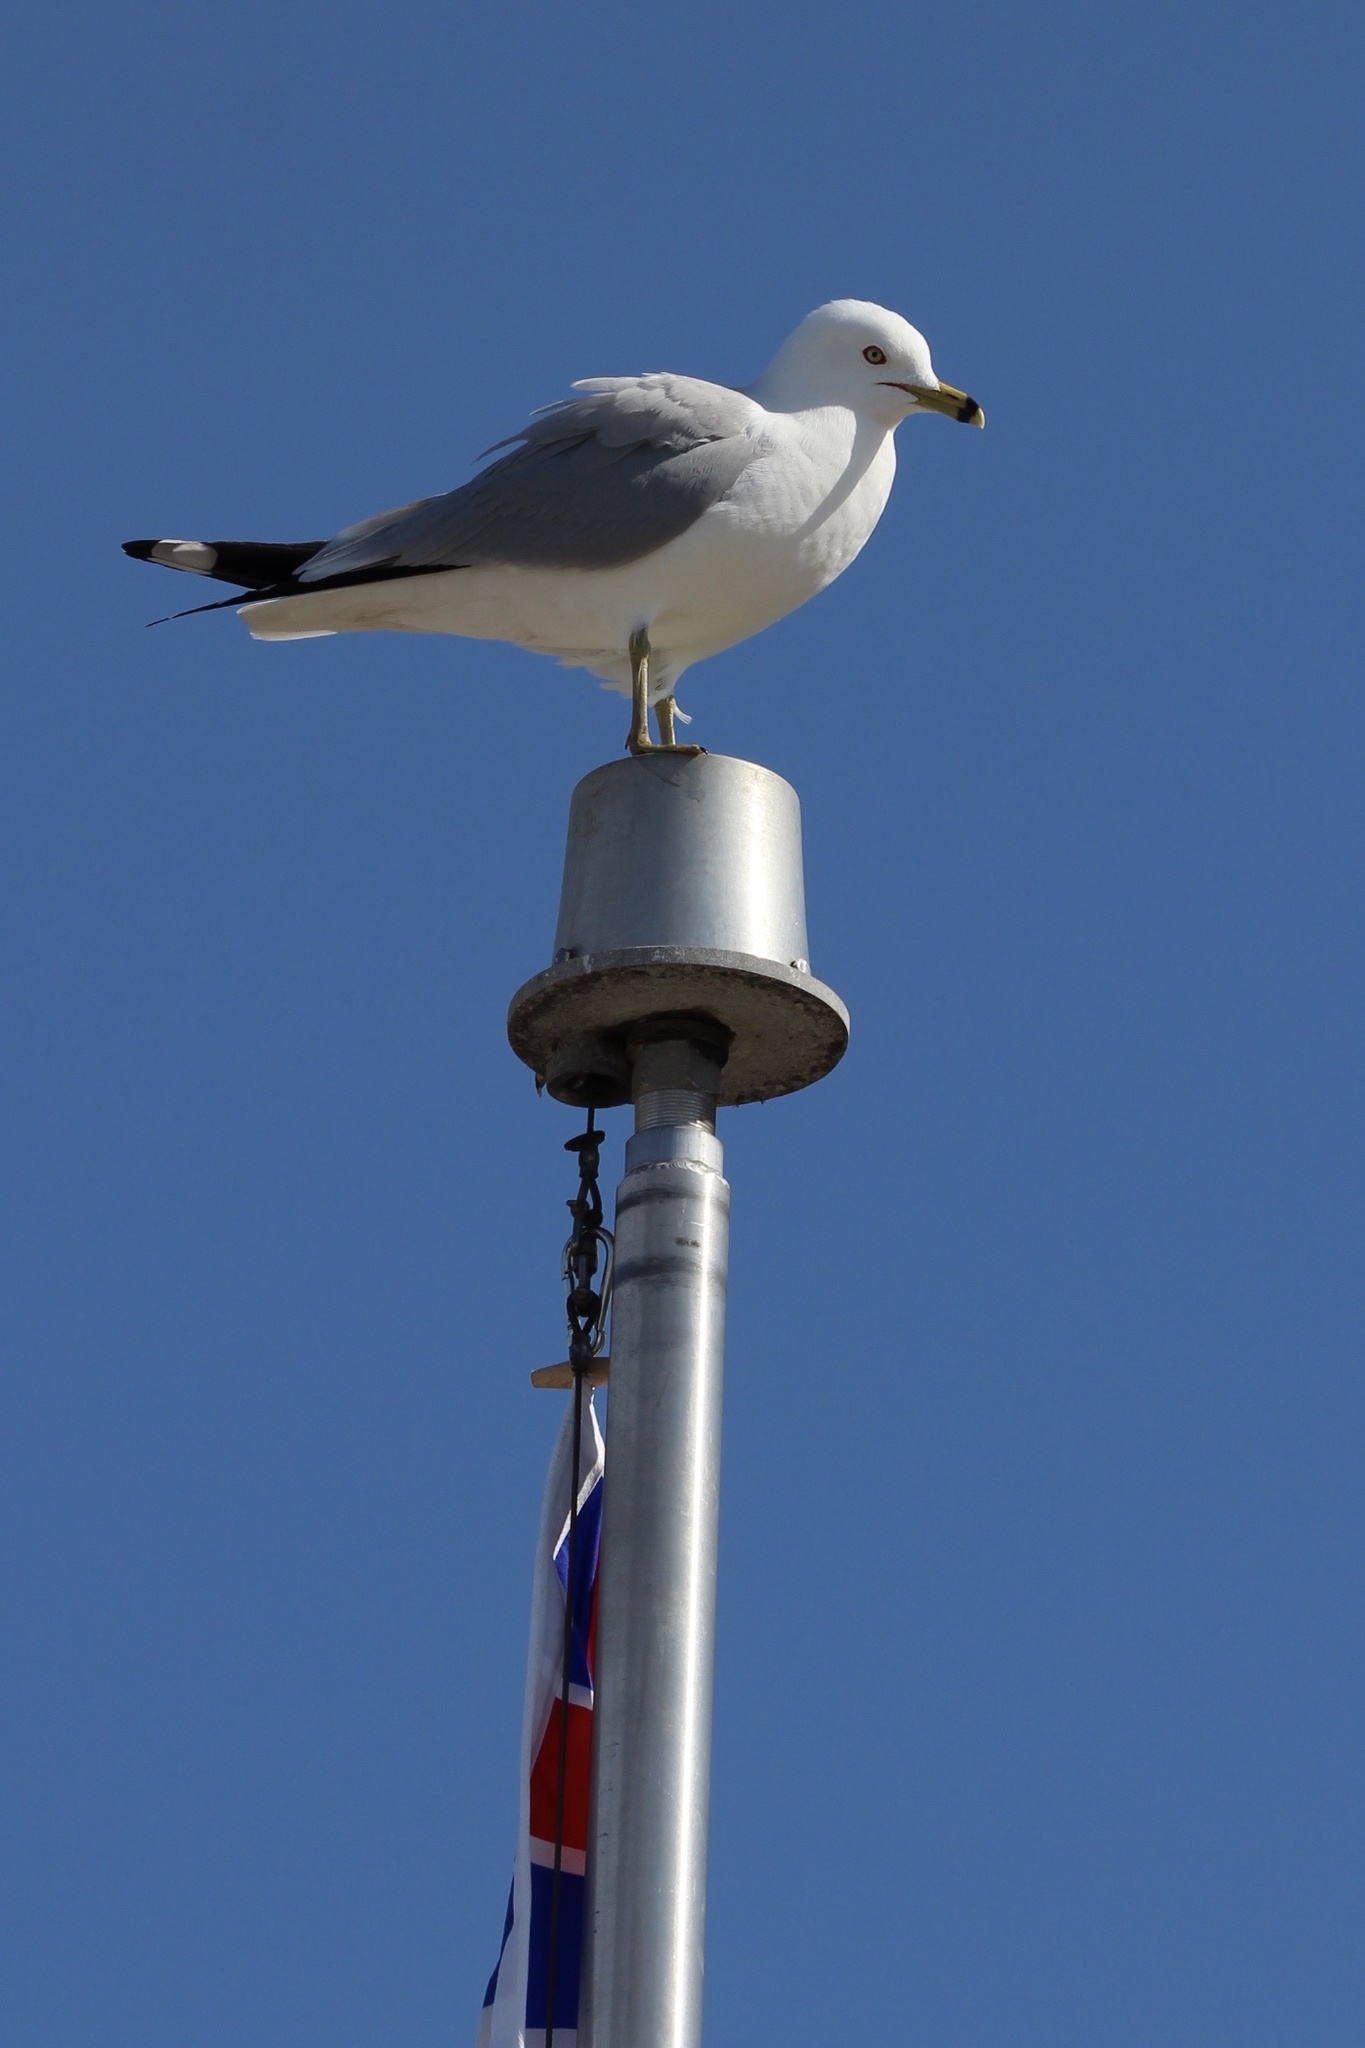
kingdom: Animalia
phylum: Chordata
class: Aves
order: Charadriiformes
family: Laridae
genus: Larus
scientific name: Larus delawarensis
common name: Ring-billed gull
